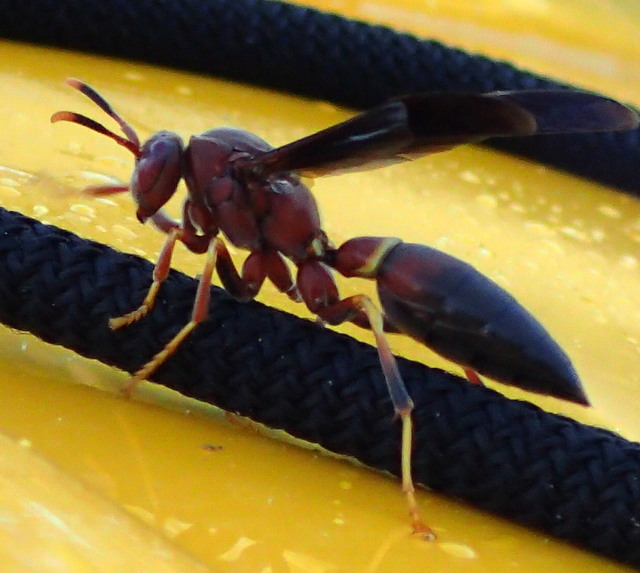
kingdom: Animalia
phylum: Arthropoda
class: Insecta
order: Hymenoptera
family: Eumenidae
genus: Polistes
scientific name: Polistes annularis
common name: Ringed paper wasp
